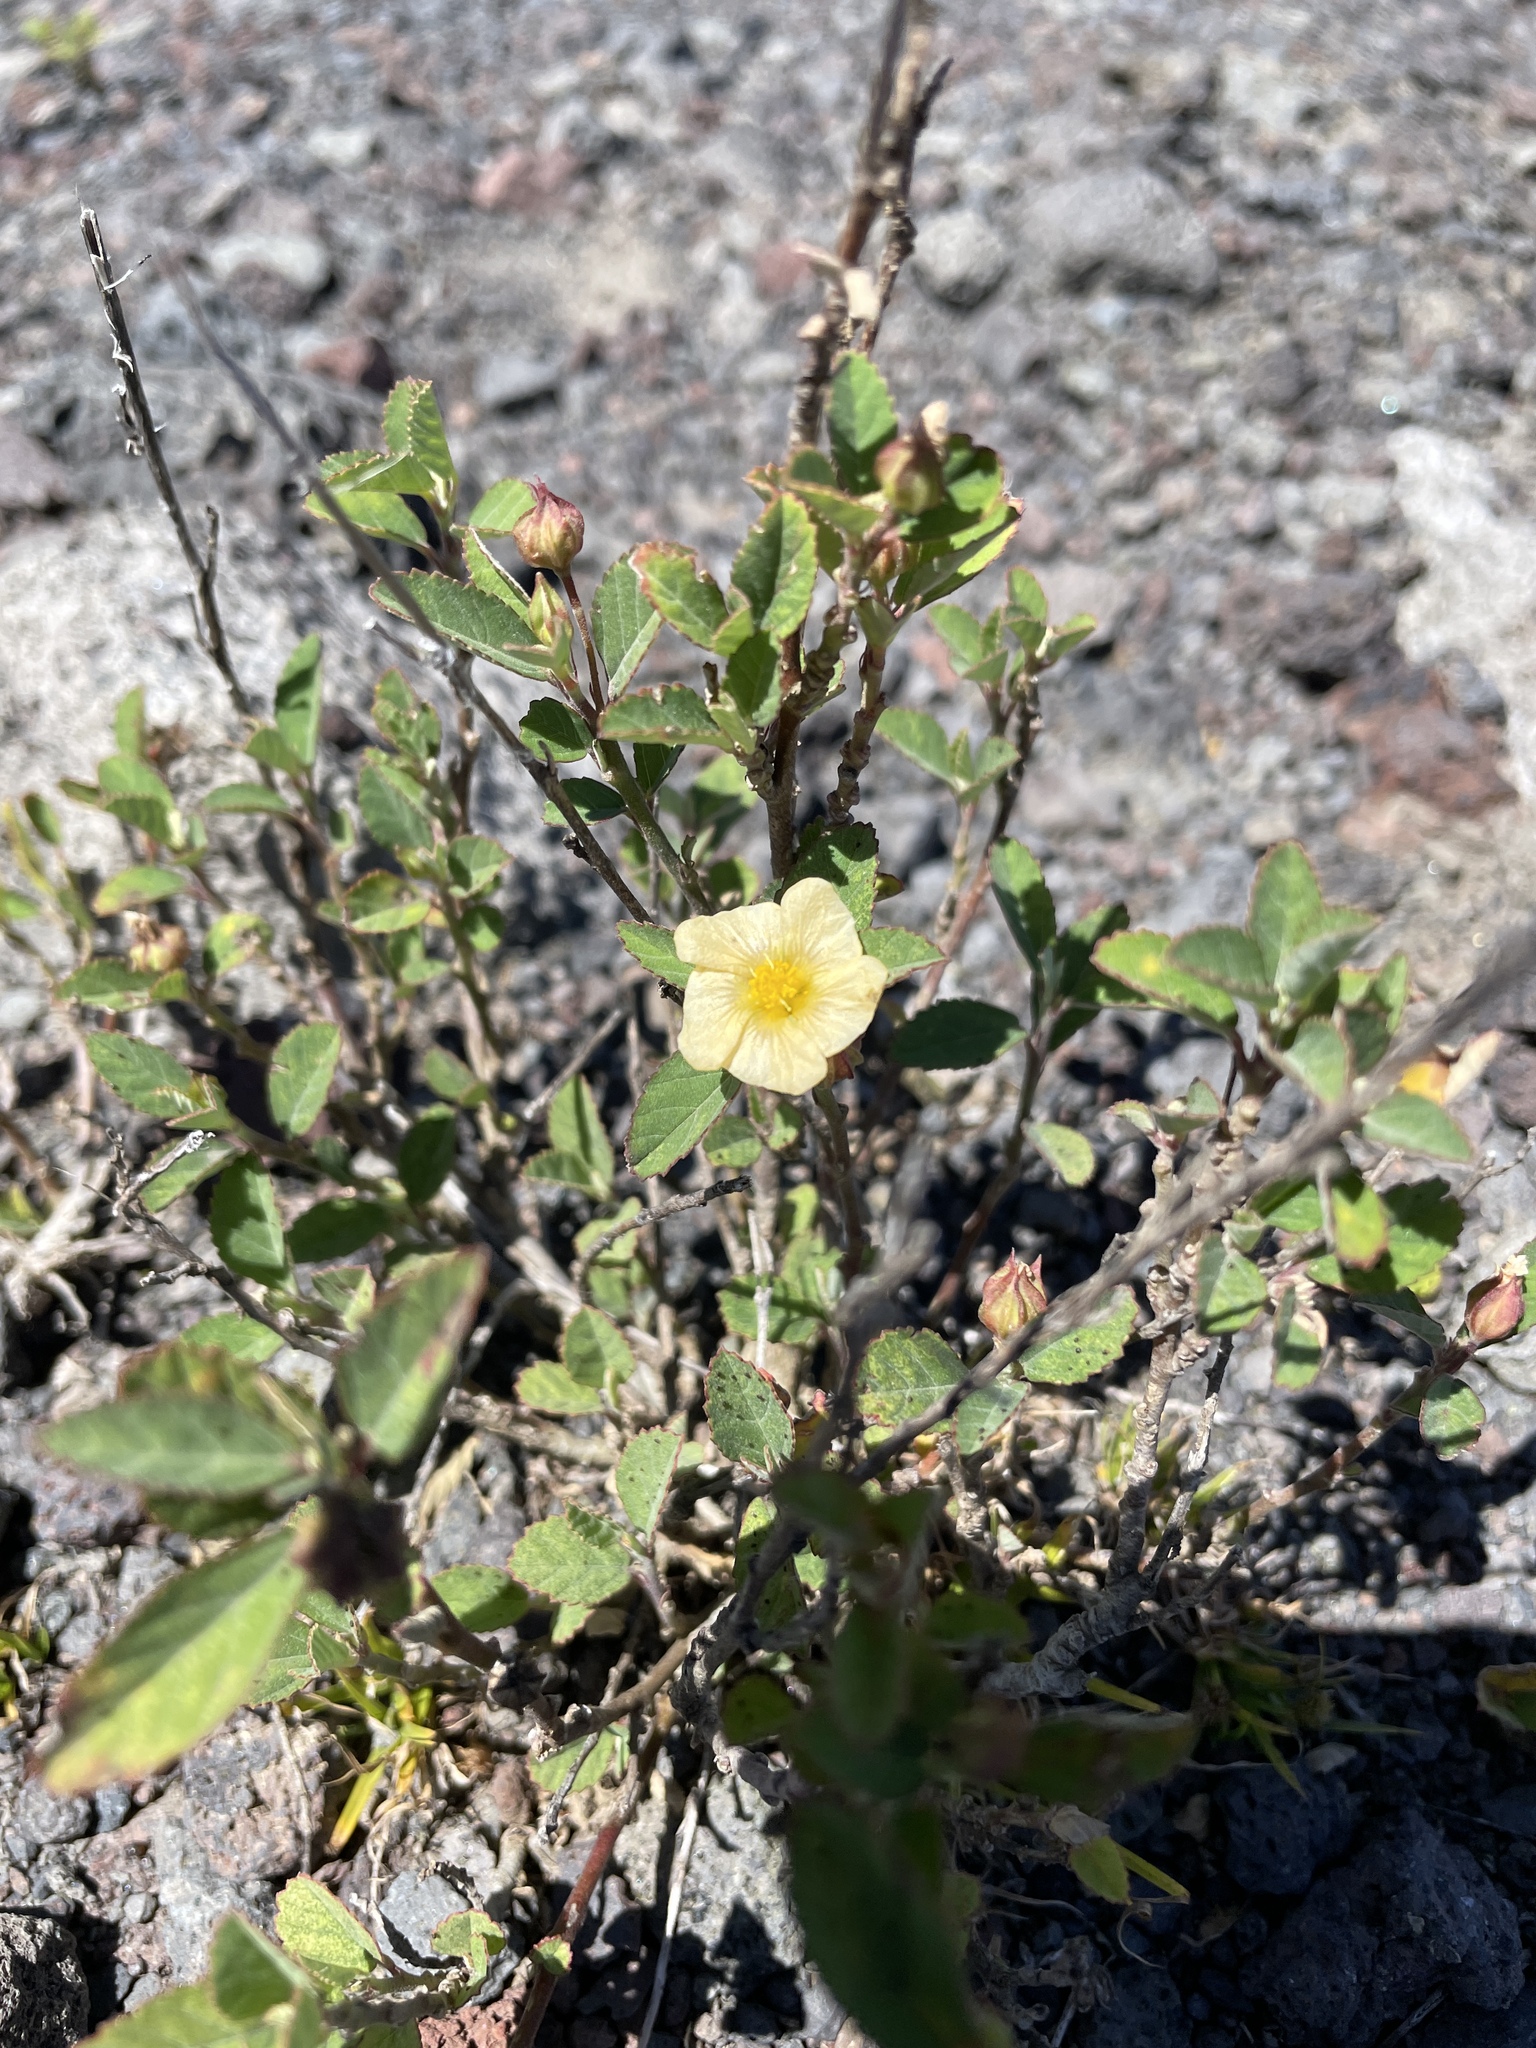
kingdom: Plantae
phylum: Tracheophyta
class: Magnoliopsida
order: Malvales
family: Malvaceae
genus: Sida
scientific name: Sida rhombifolia
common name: Queensland-hemp
